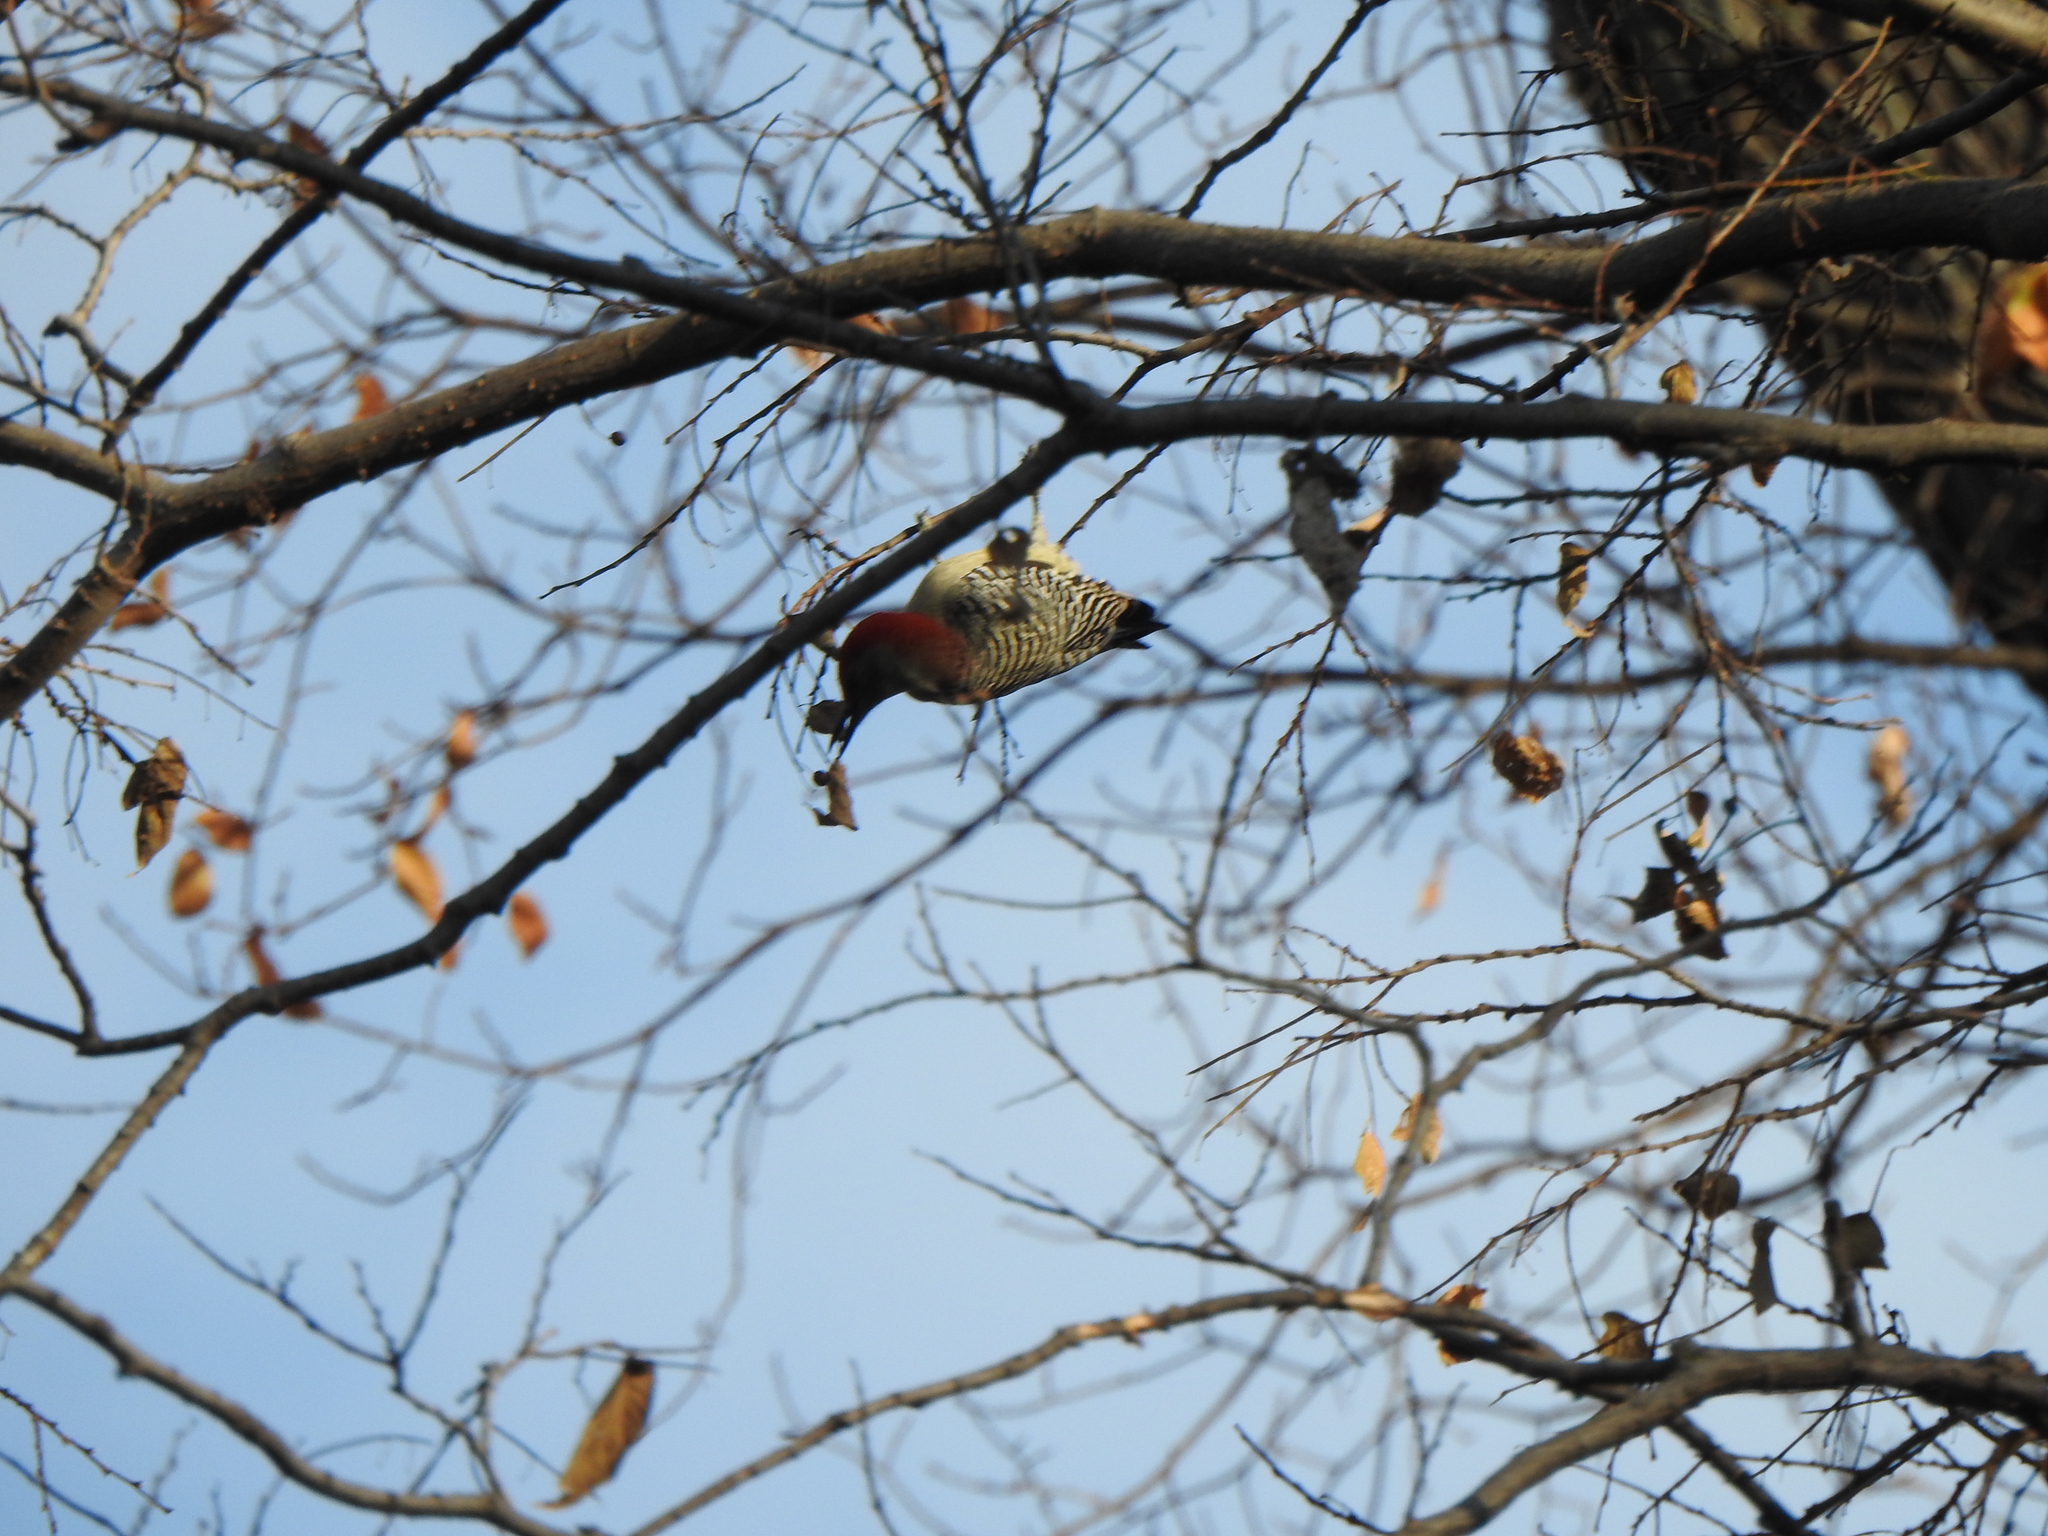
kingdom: Animalia
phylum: Chordata
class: Aves
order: Piciformes
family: Picidae
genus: Melanerpes
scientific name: Melanerpes carolinus
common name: Red-bellied woodpecker
